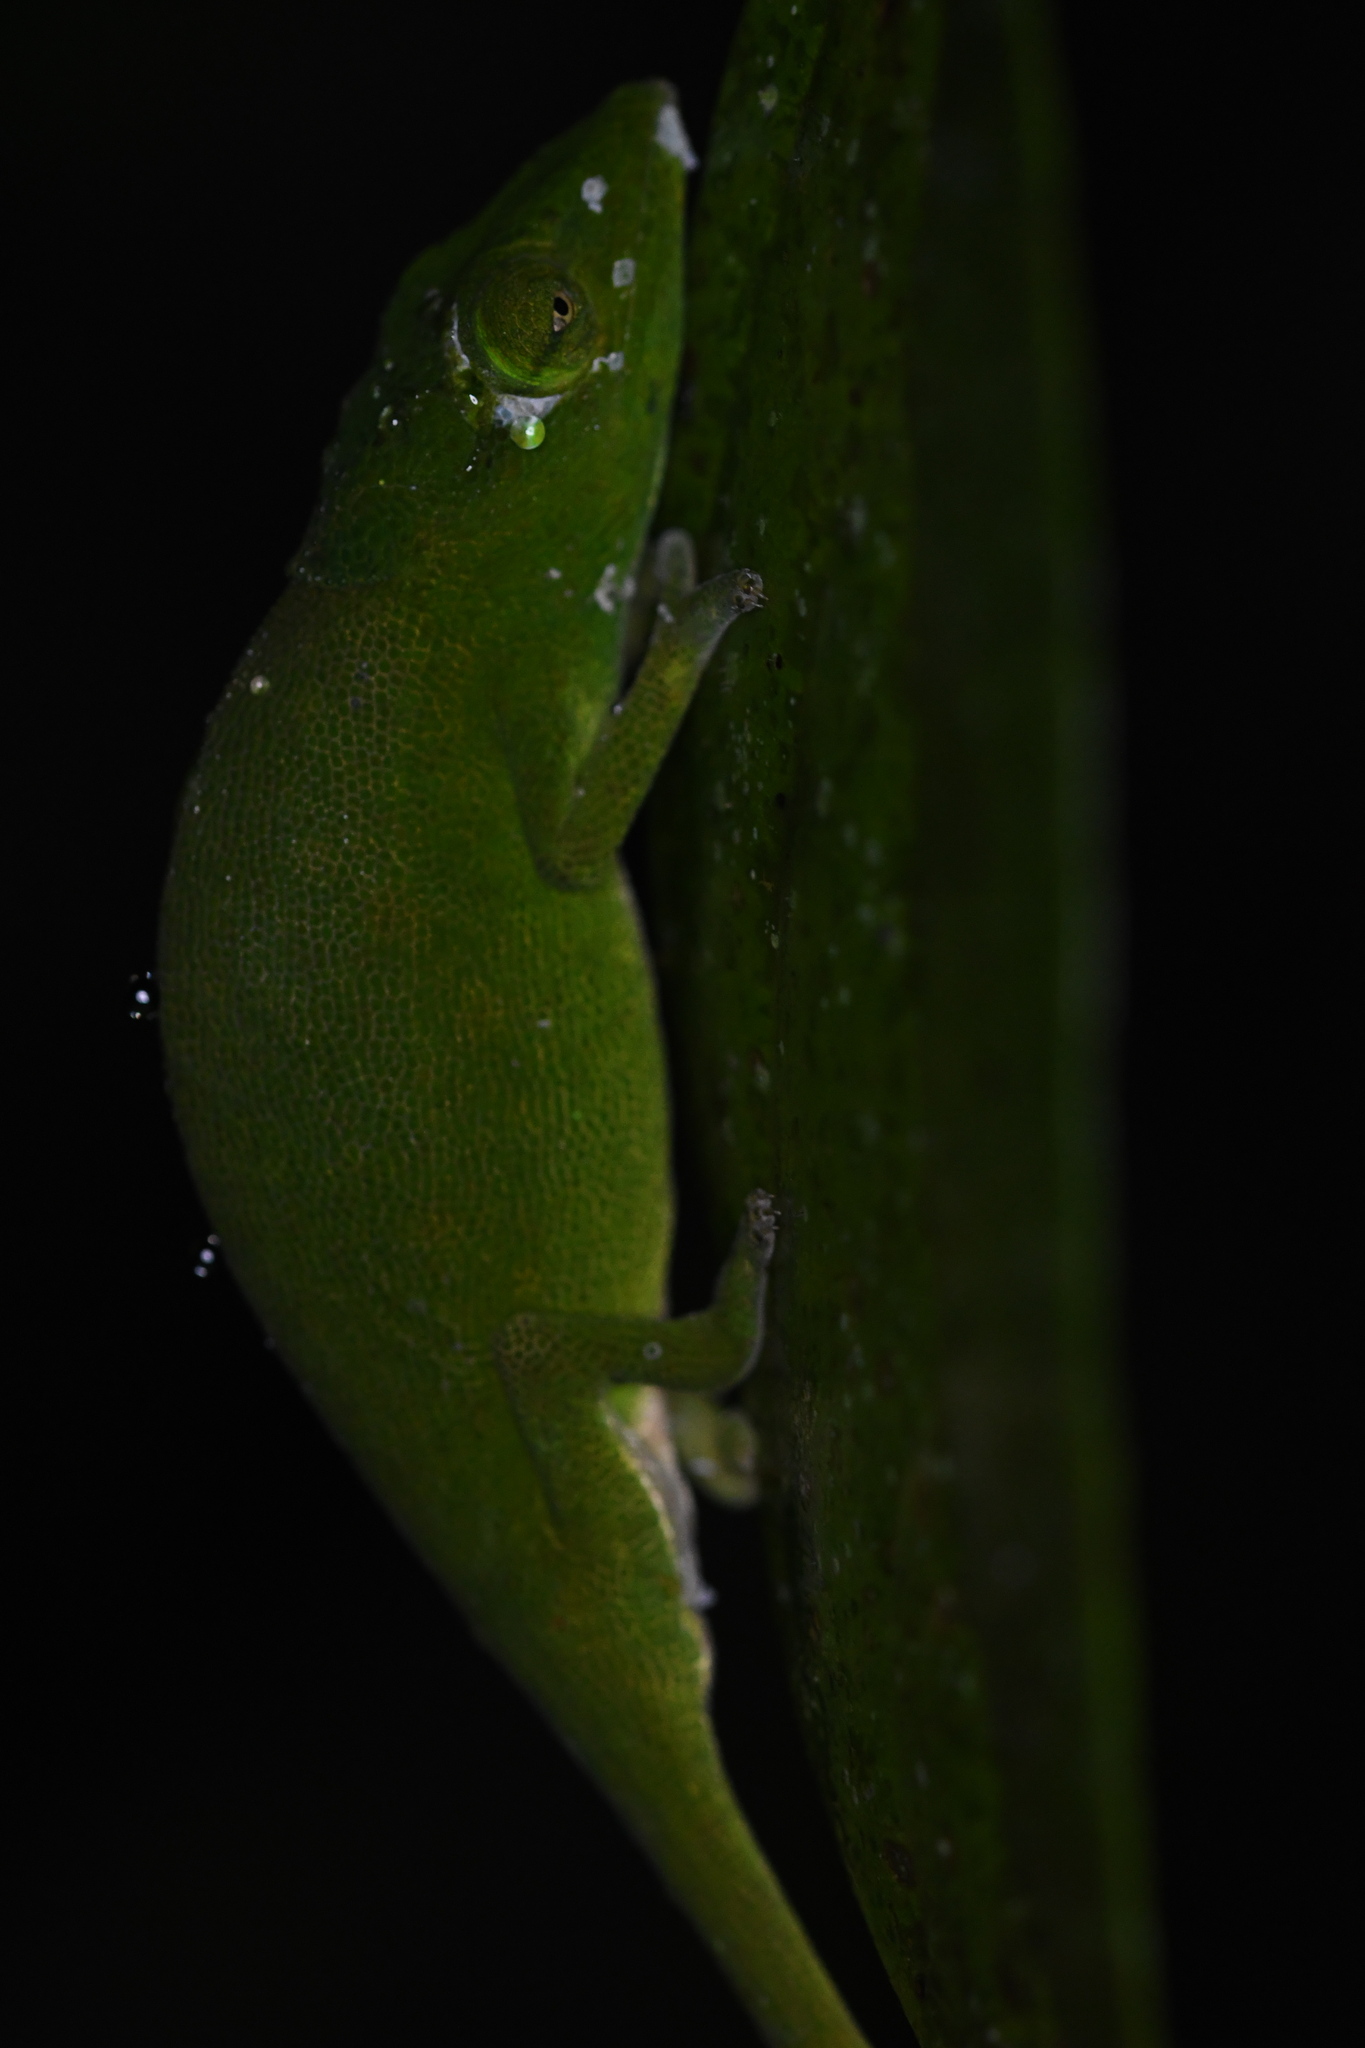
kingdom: Animalia
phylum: Chordata
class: Squamata
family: Chamaeleonidae
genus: Calumma
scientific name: Calumma glawi
